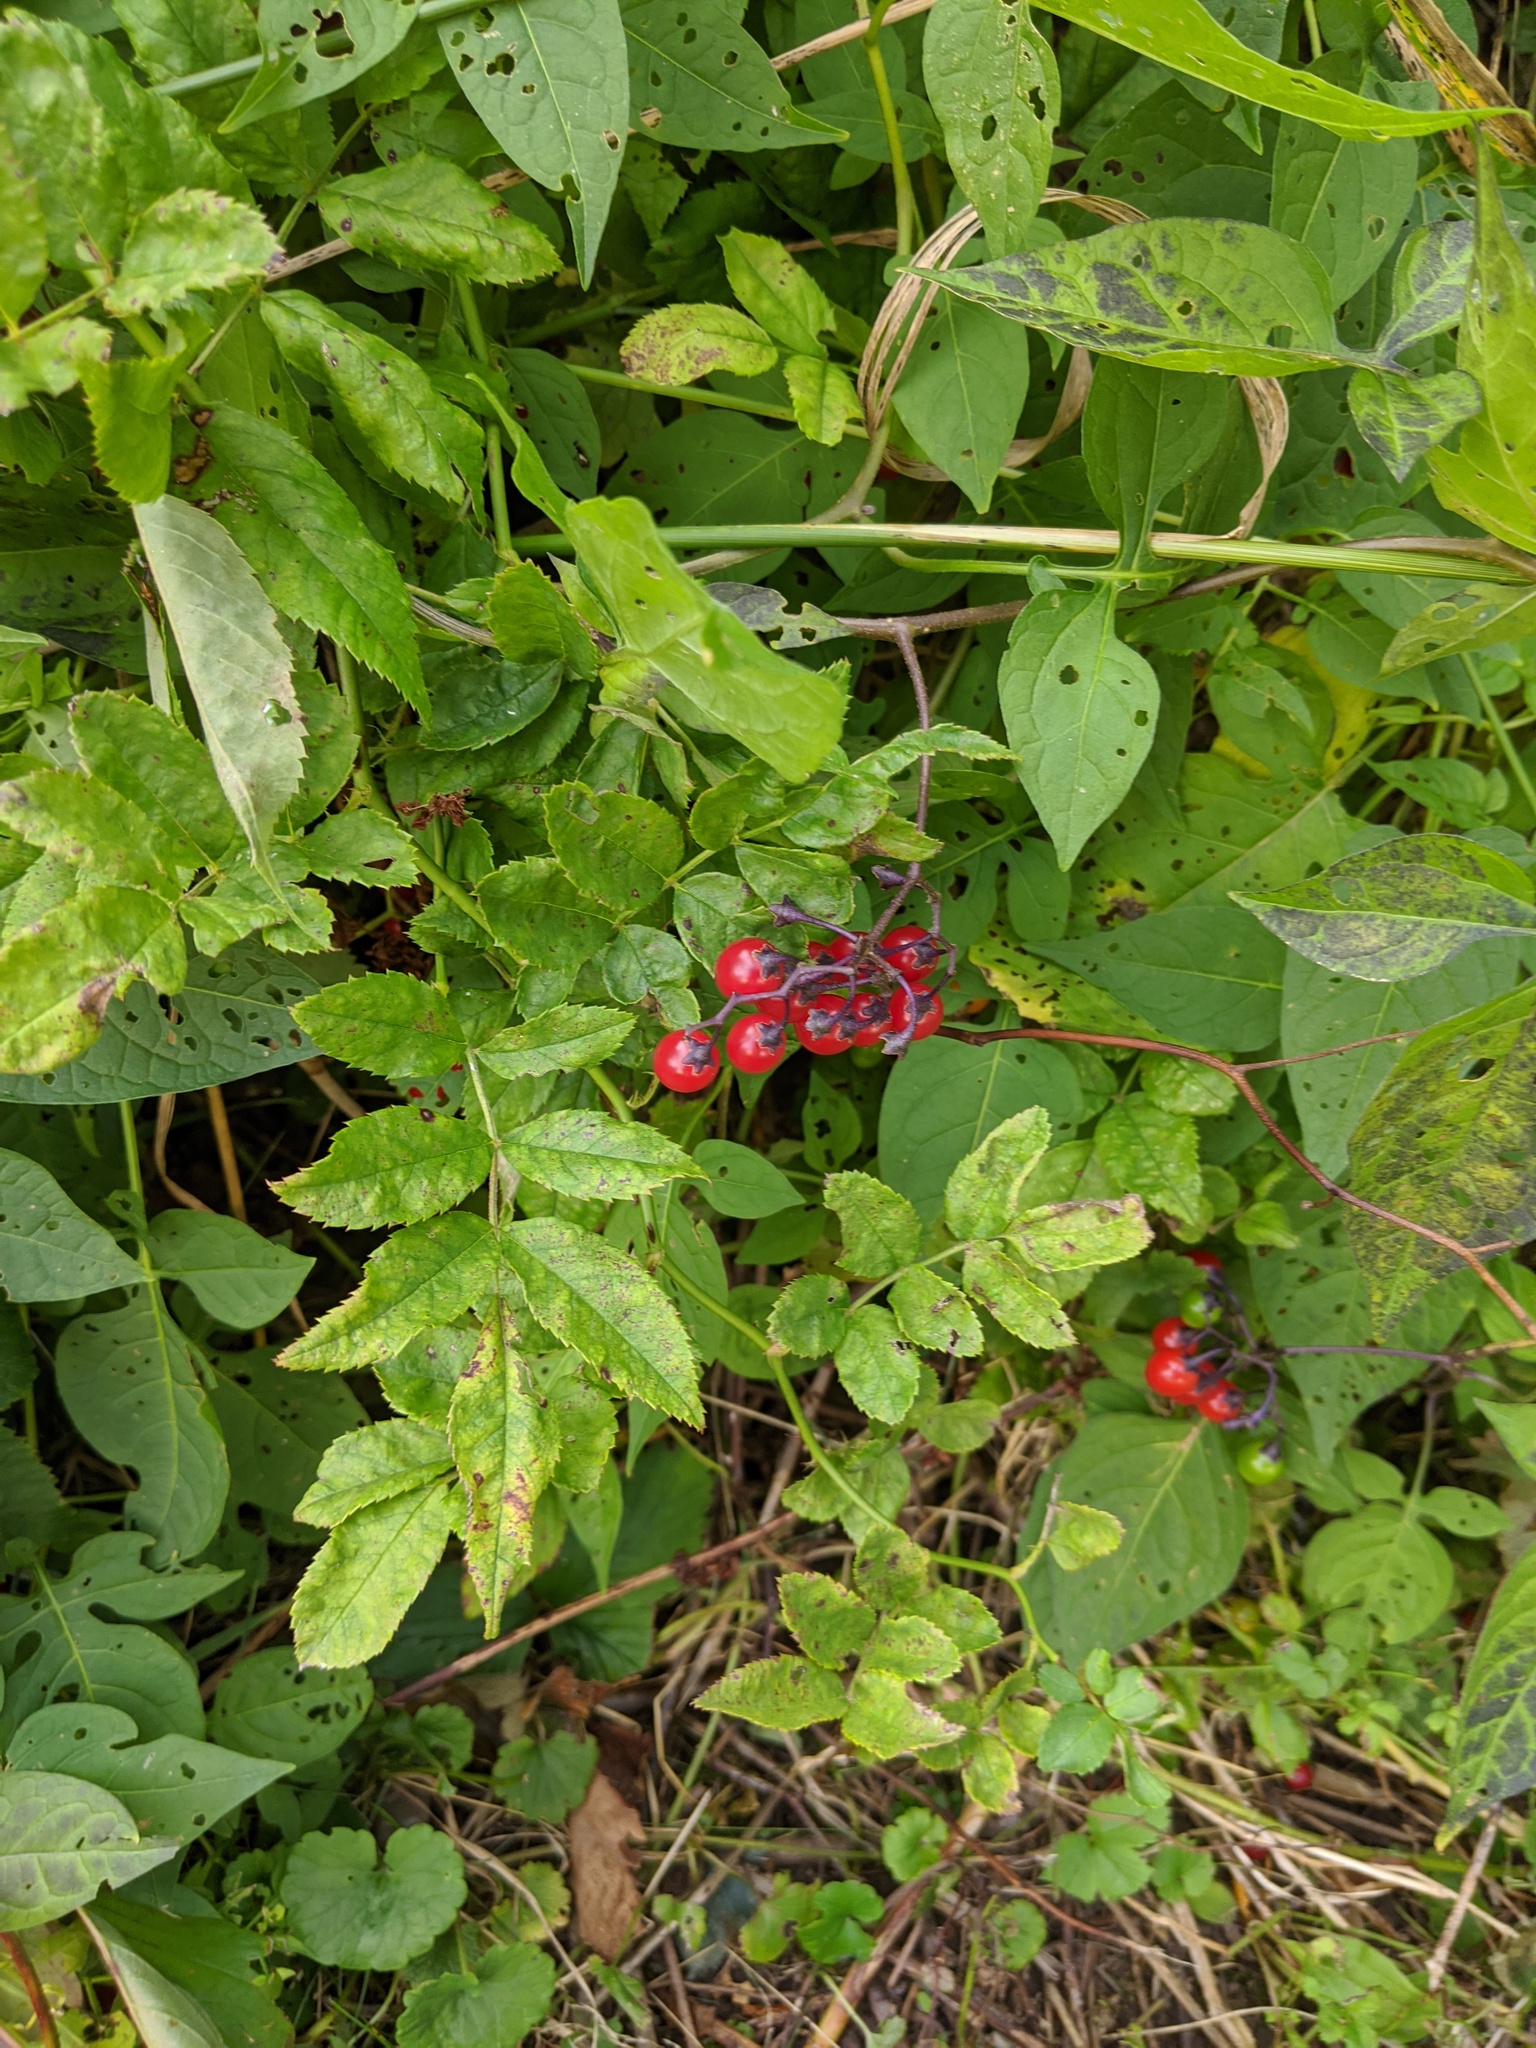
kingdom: Plantae
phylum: Tracheophyta
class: Magnoliopsida
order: Solanales
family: Solanaceae
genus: Solanum
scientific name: Solanum dulcamara
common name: Climbing nightshade
